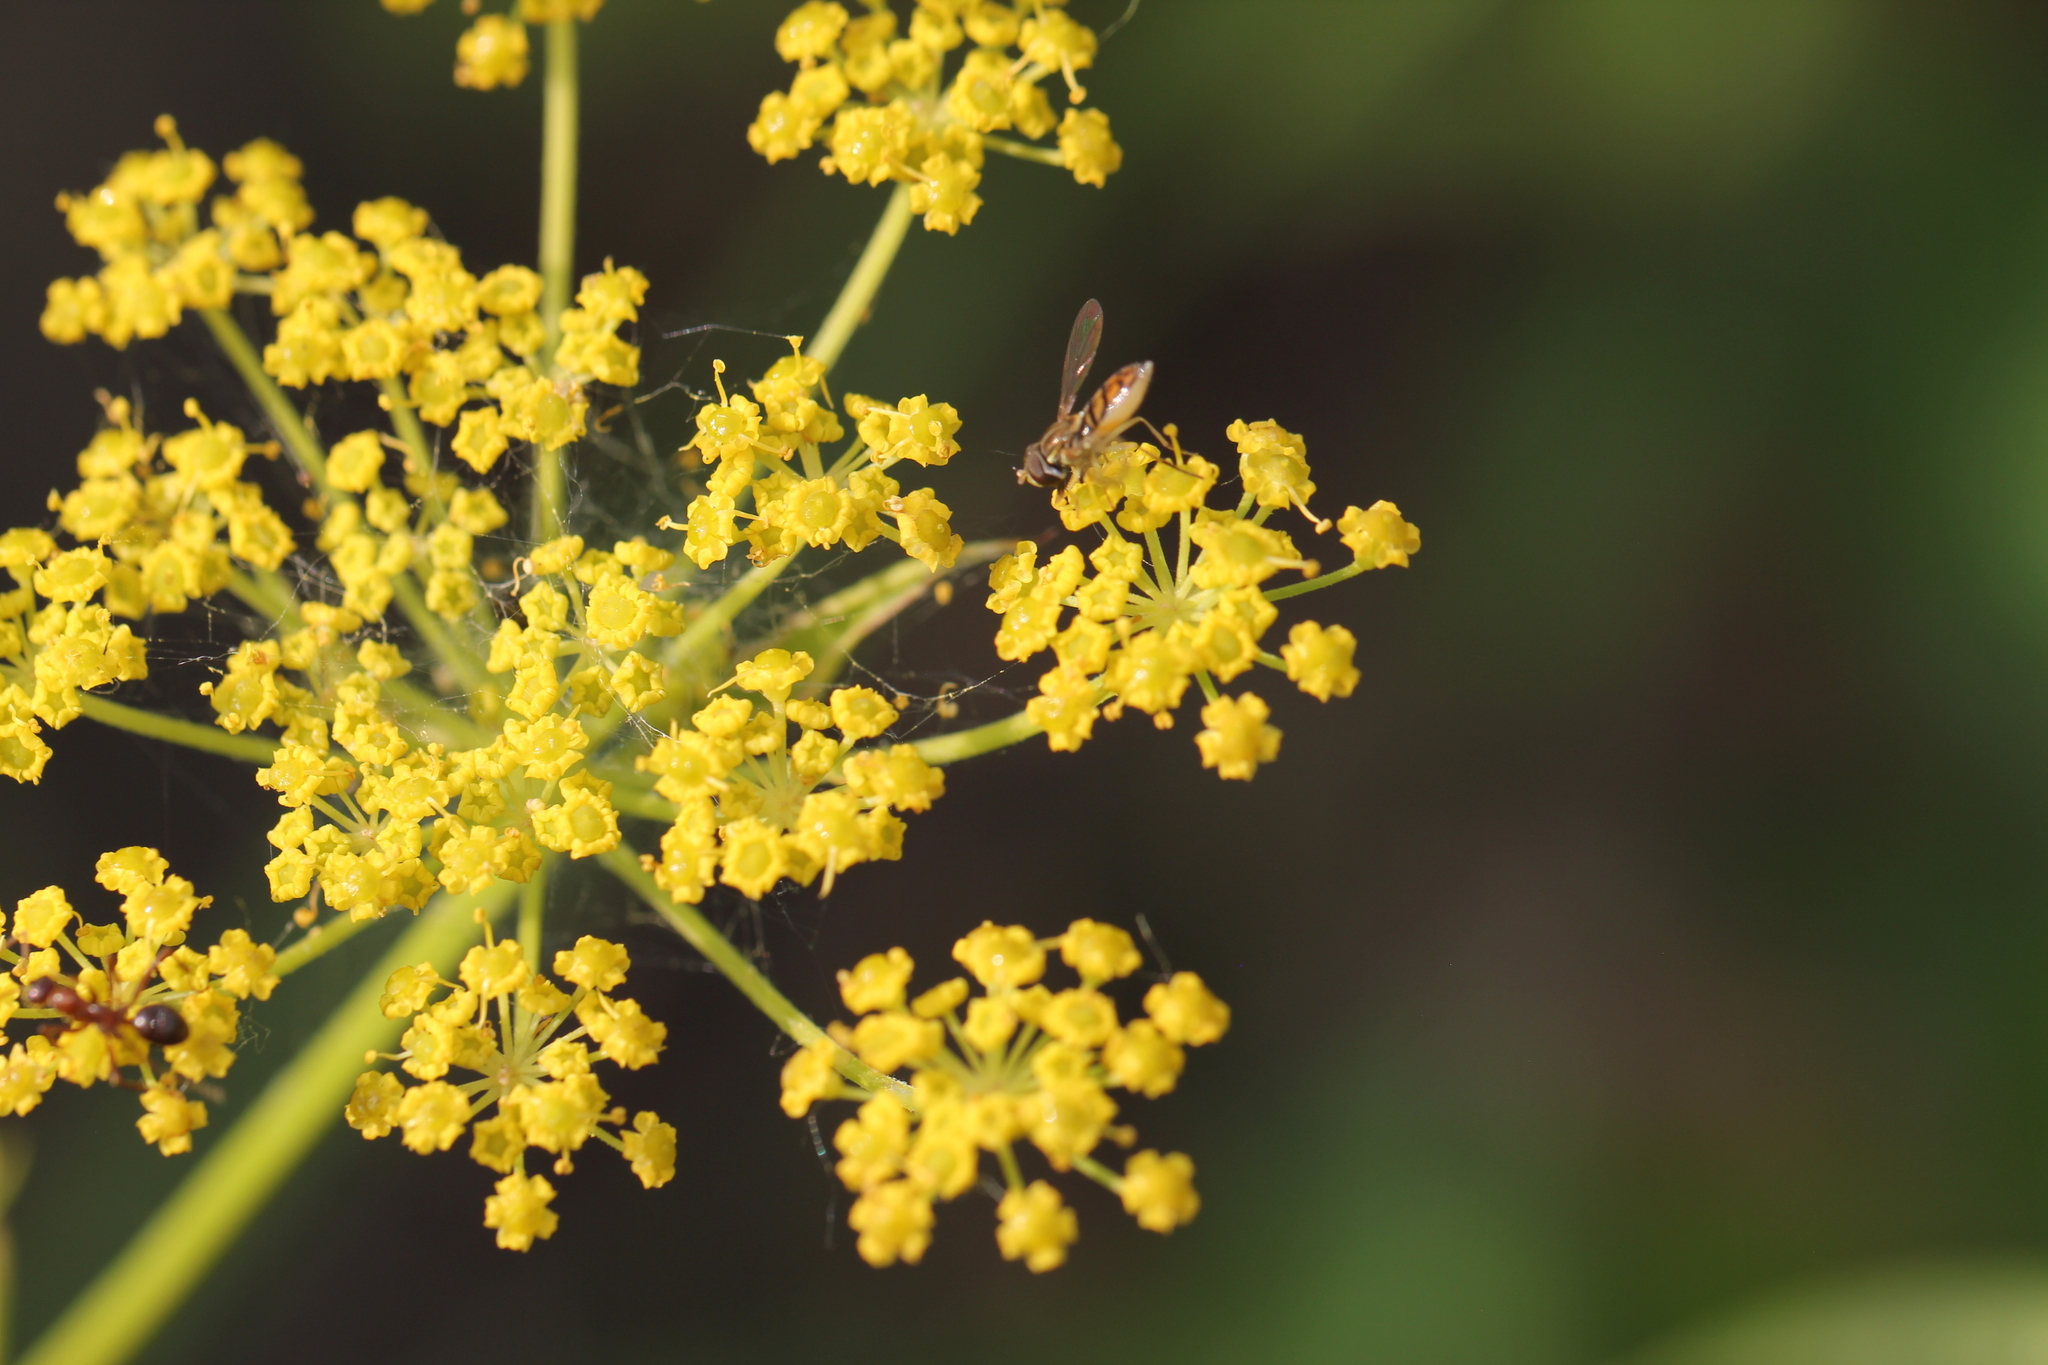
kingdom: Animalia
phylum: Arthropoda
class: Insecta
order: Diptera
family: Syrphidae
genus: Toxomerus
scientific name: Toxomerus marginatus
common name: Syrphid fly
